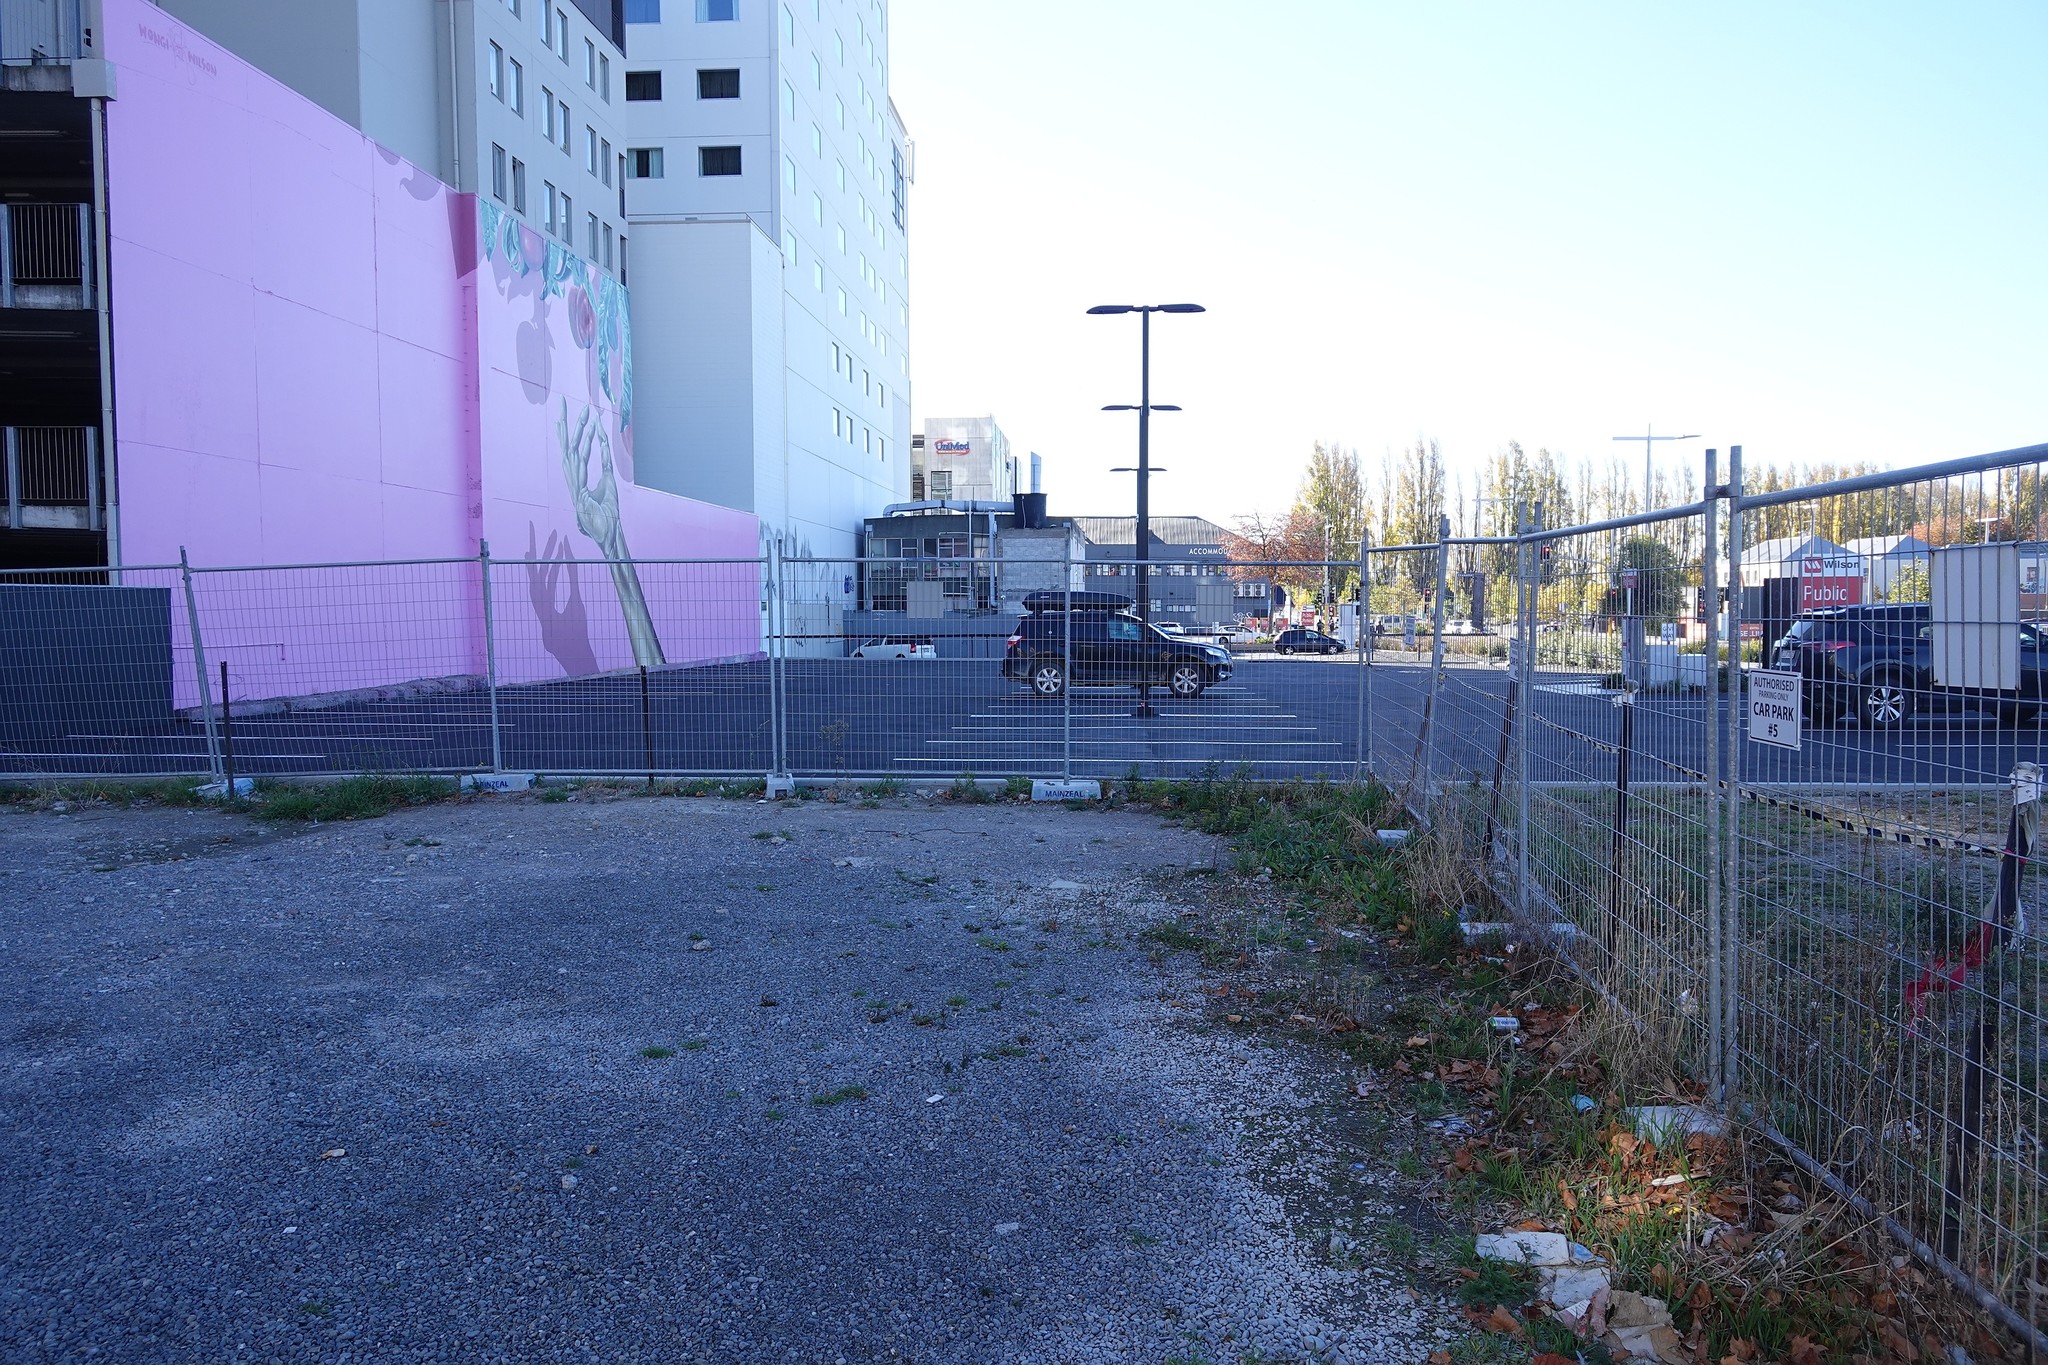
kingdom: Plantae
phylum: Tracheophyta
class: Magnoliopsida
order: Asterales
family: Asteraceae
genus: Senecio
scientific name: Senecio skirrhodon
